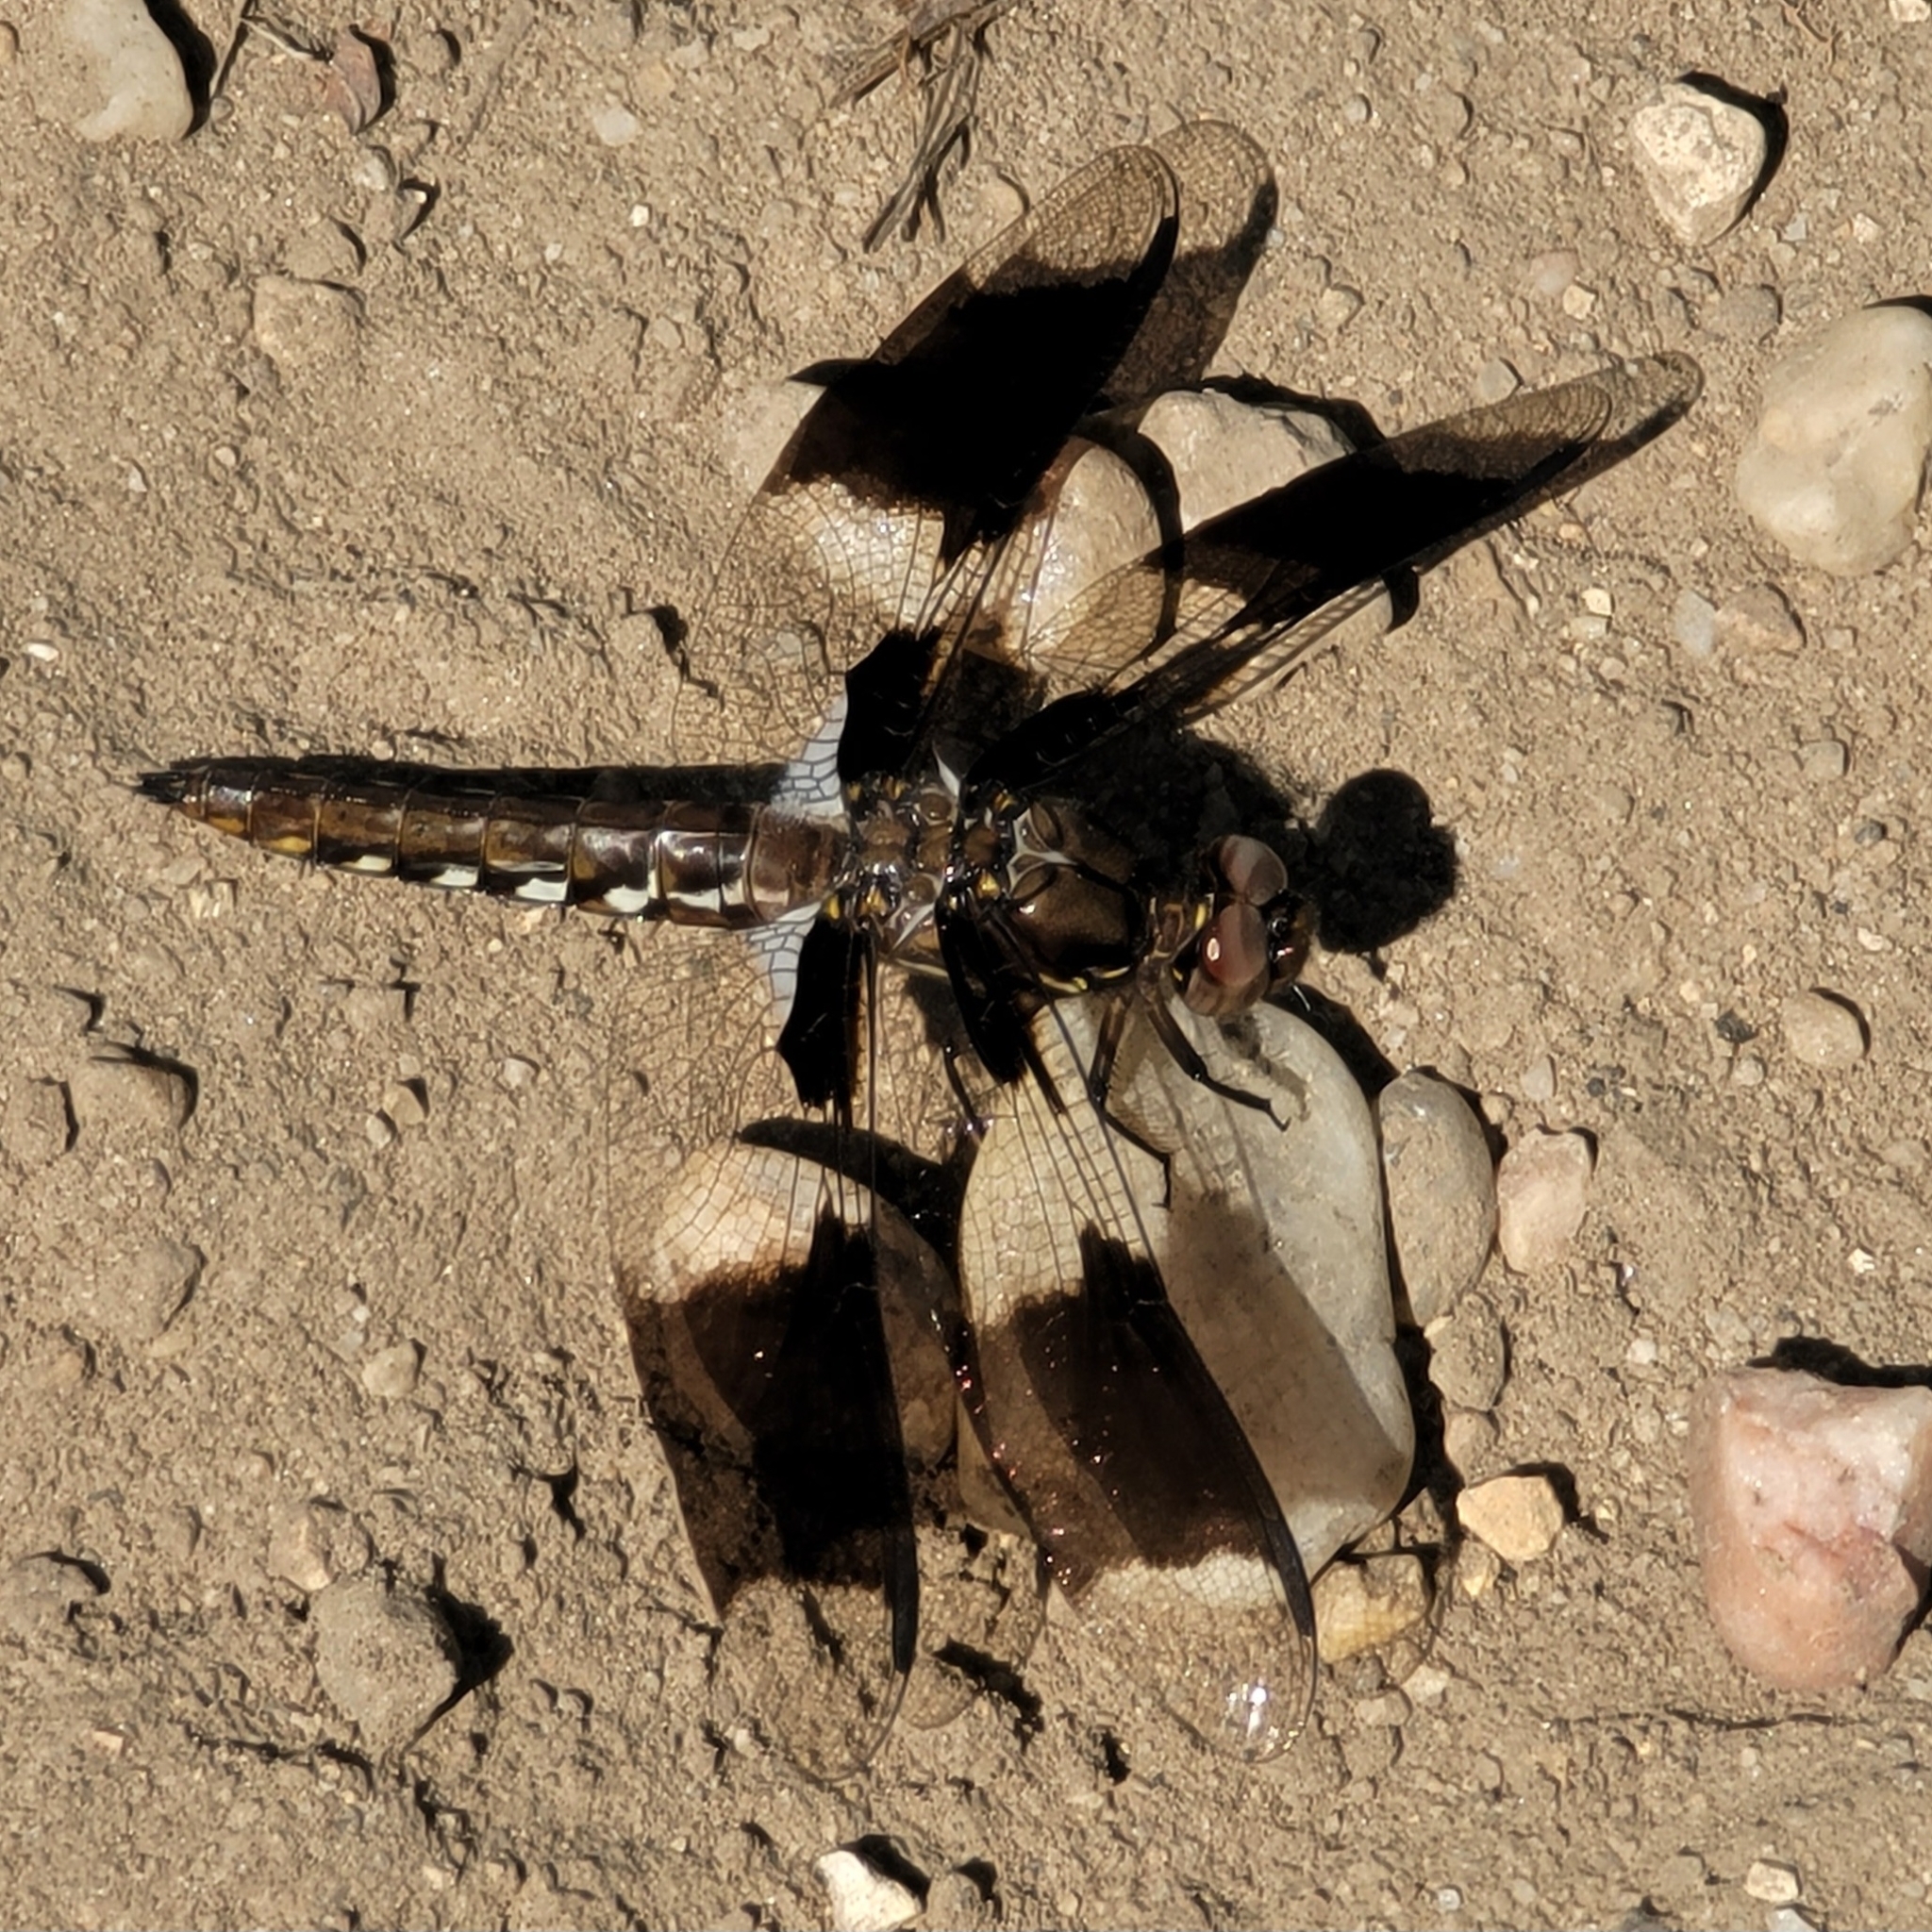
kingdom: Animalia
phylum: Arthropoda
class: Insecta
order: Odonata
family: Libellulidae
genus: Plathemis
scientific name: Plathemis lydia
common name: Common whitetail
